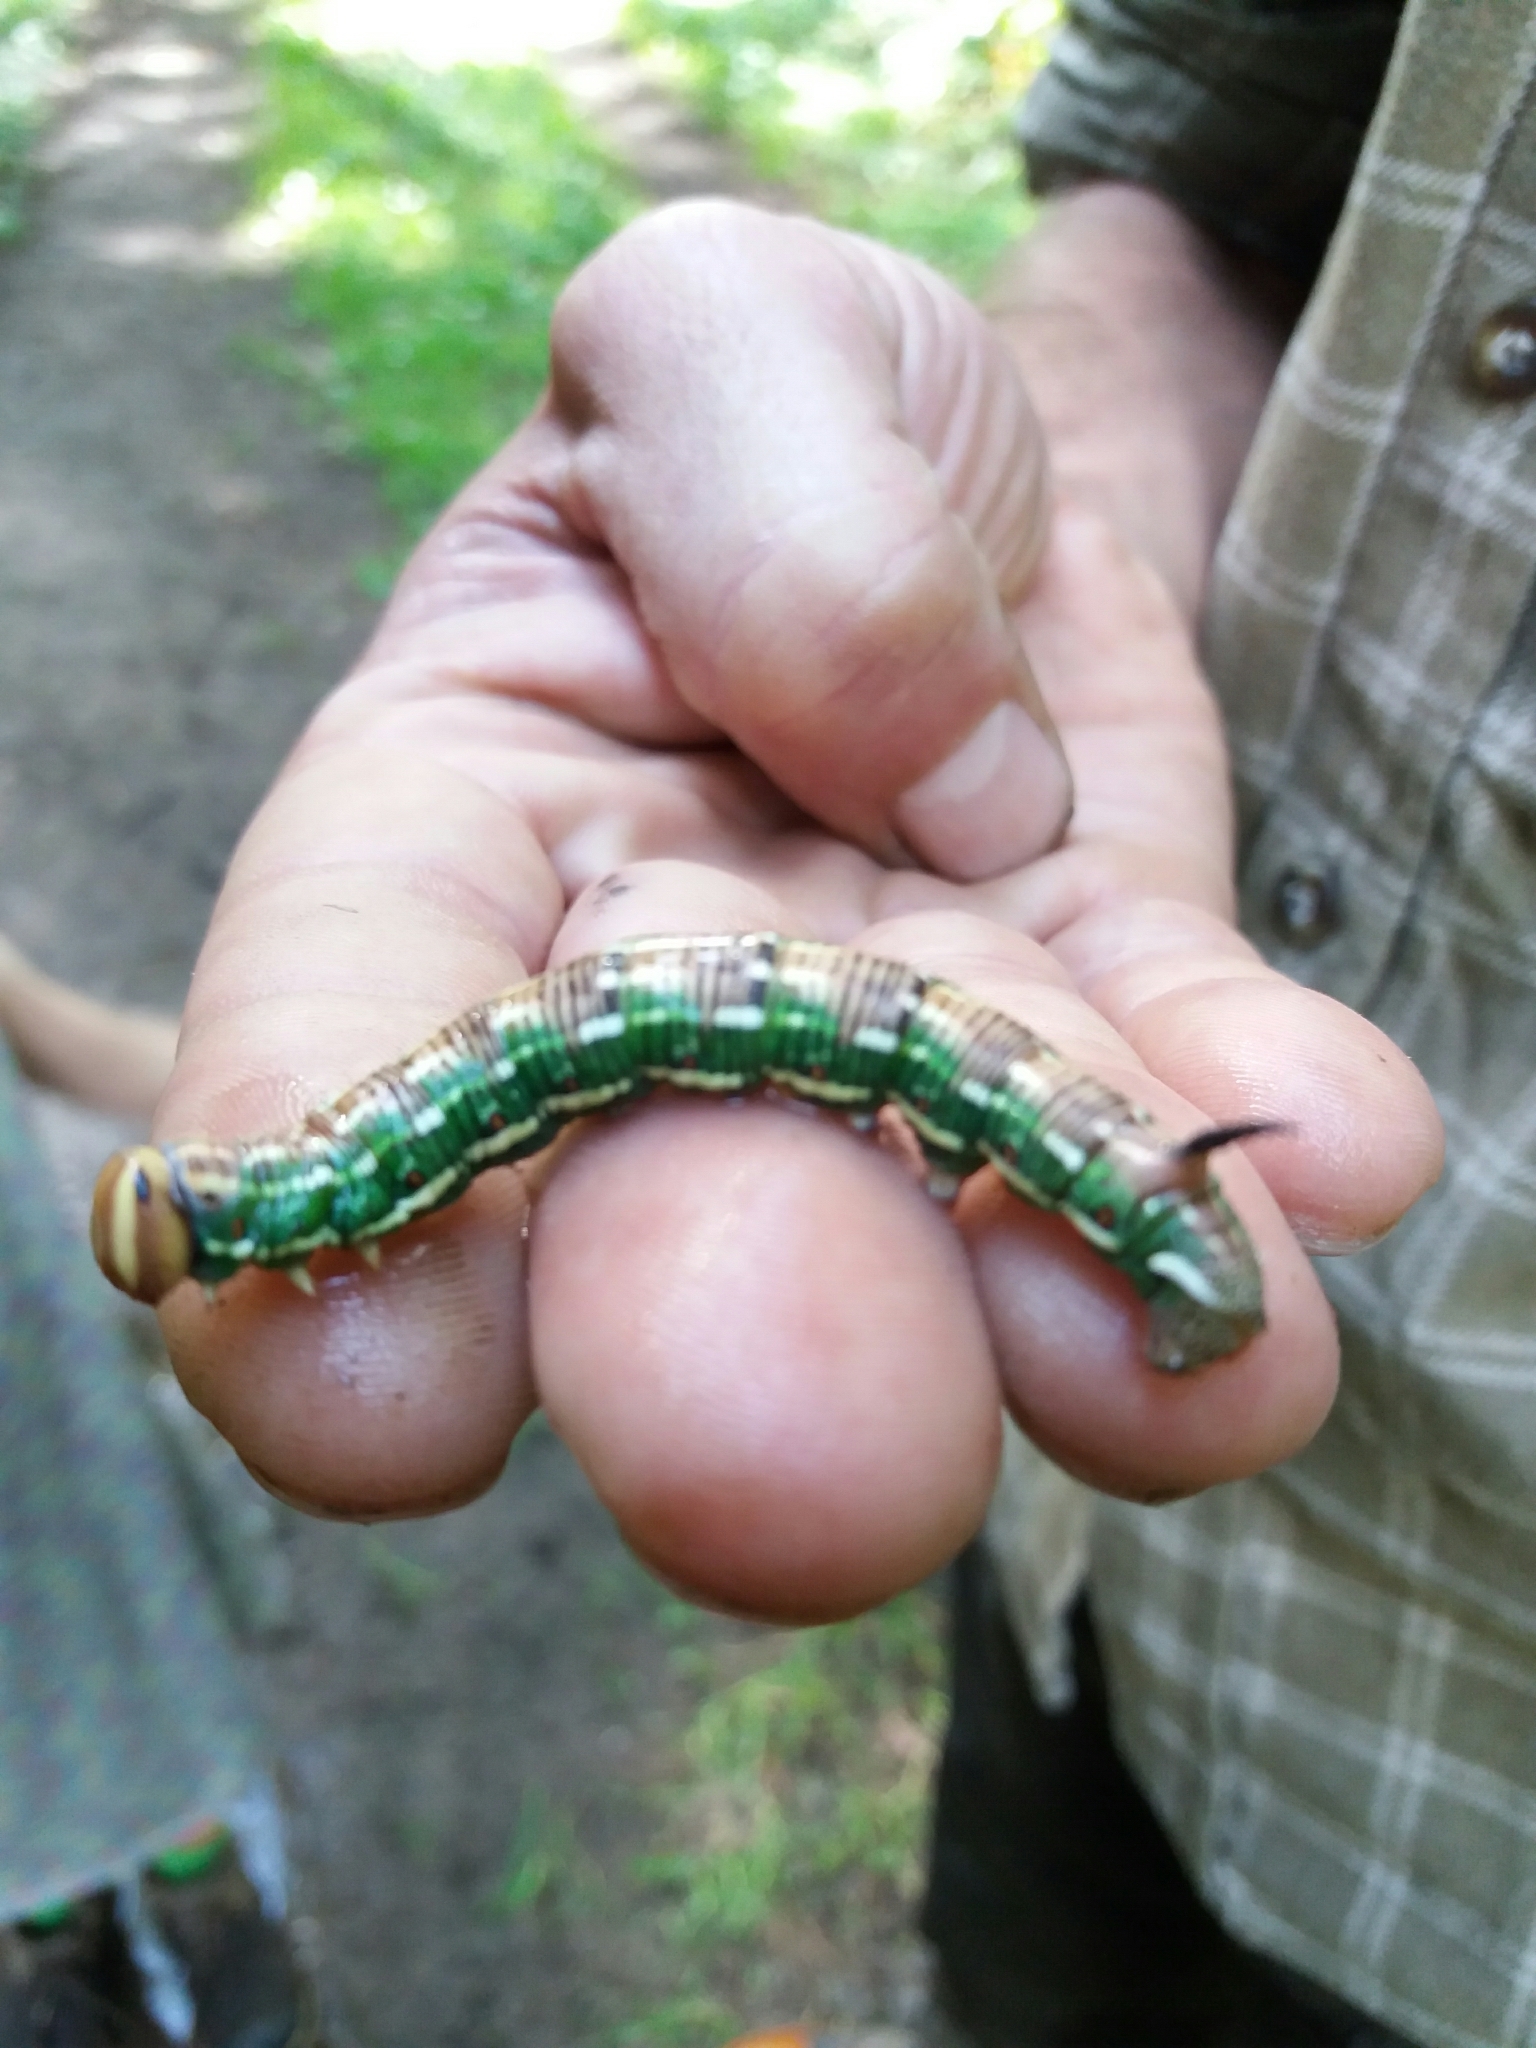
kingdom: Animalia
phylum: Arthropoda
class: Insecta
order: Lepidoptera
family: Sphingidae
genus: Sphinx
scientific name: Sphinx pinastri
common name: Pine hawk-moth
